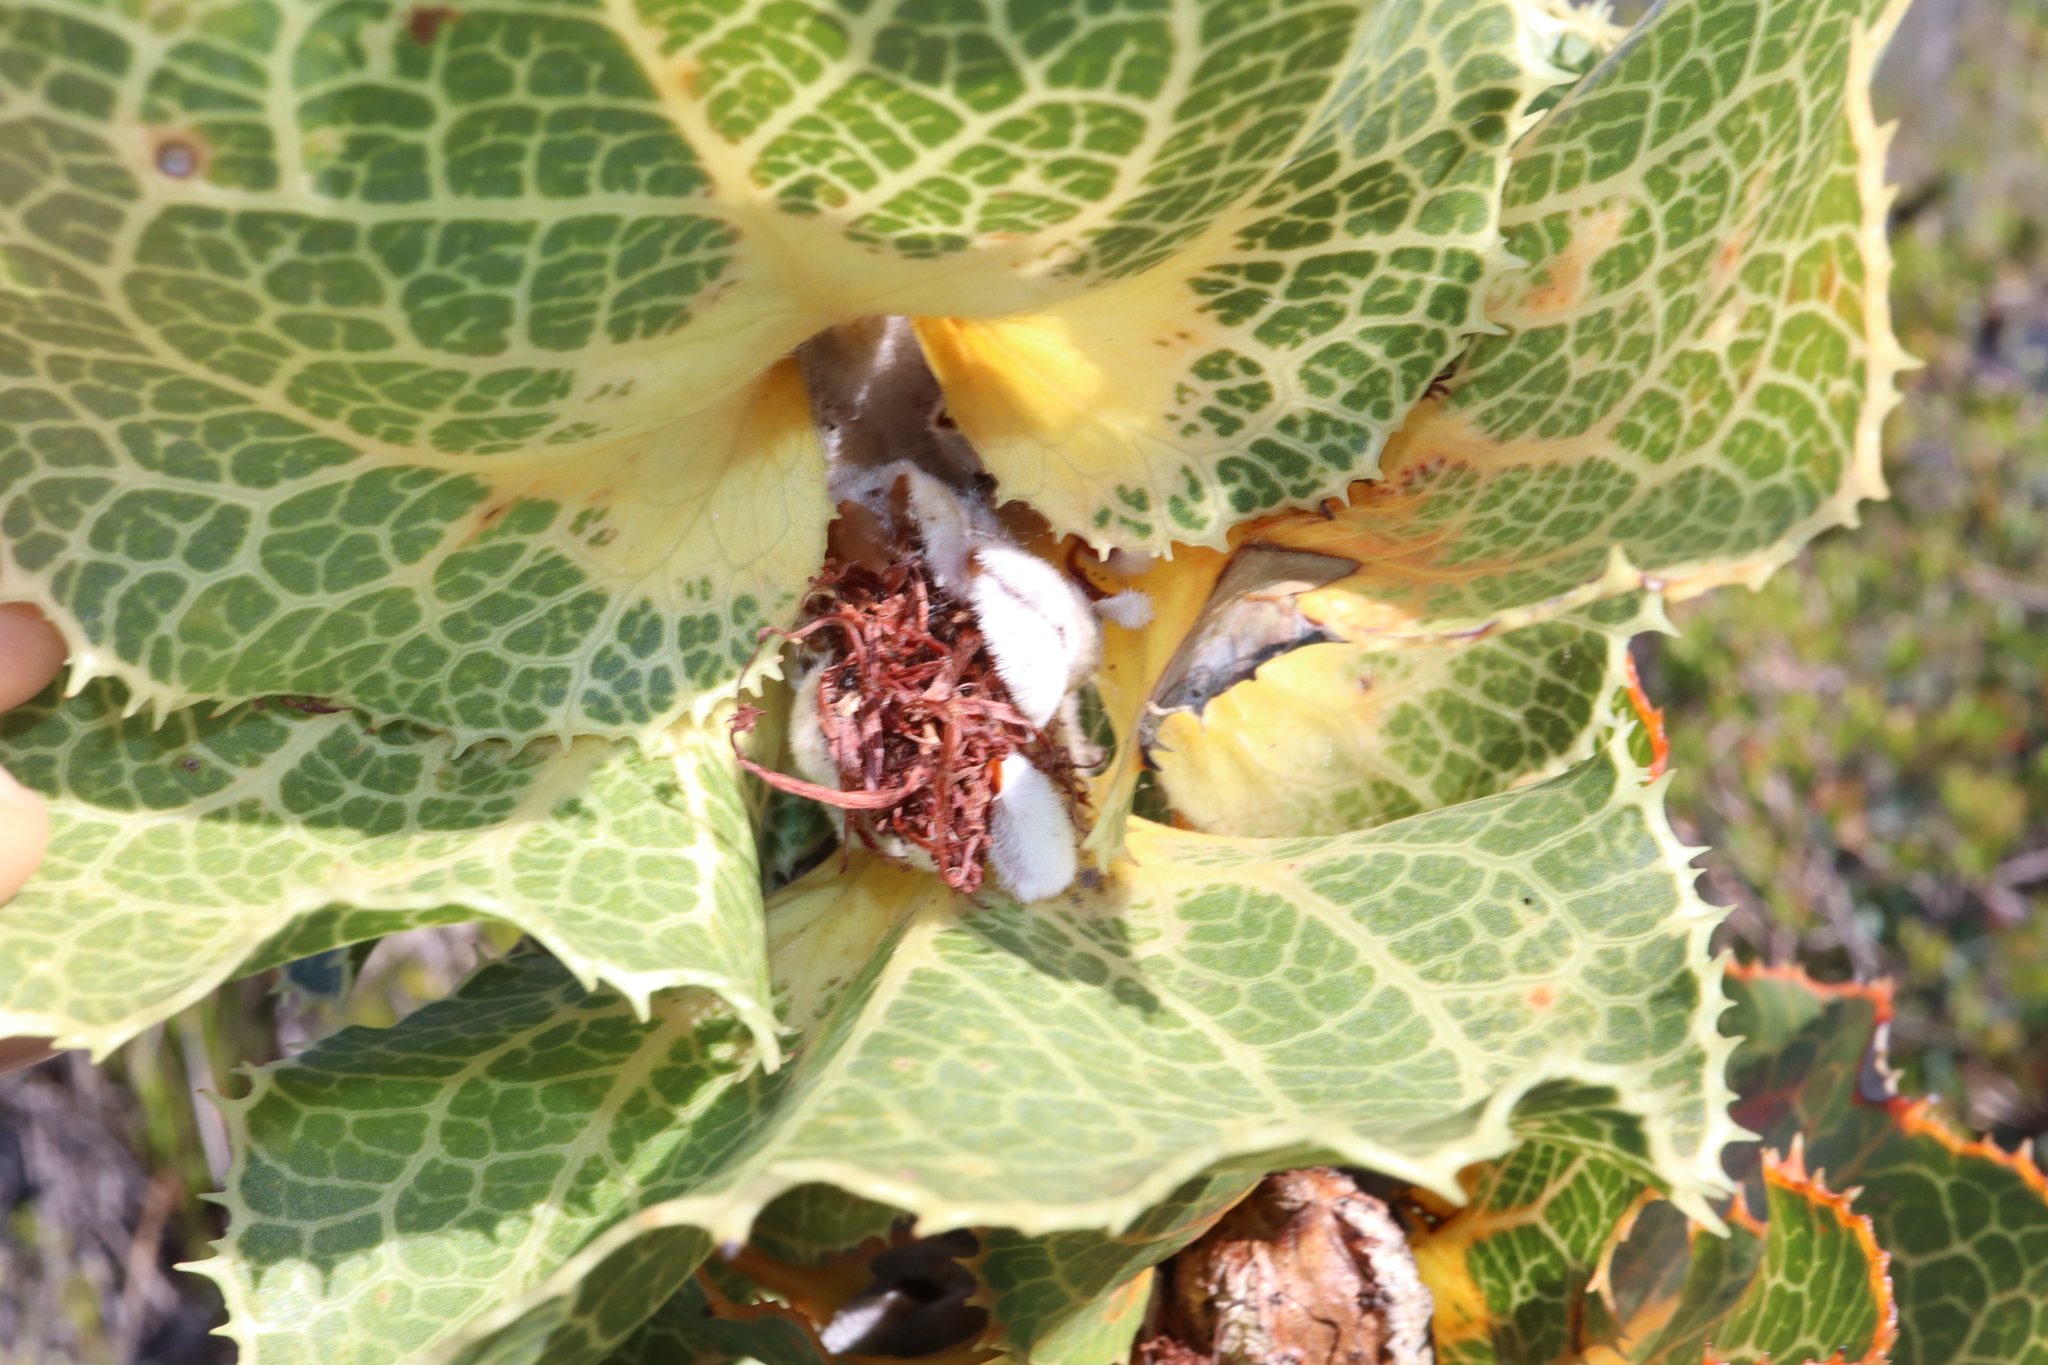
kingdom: Plantae
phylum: Tracheophyta
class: Magnoliopsida
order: Proteales
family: Proteaceae
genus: Hakea
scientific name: Hakea victoria
